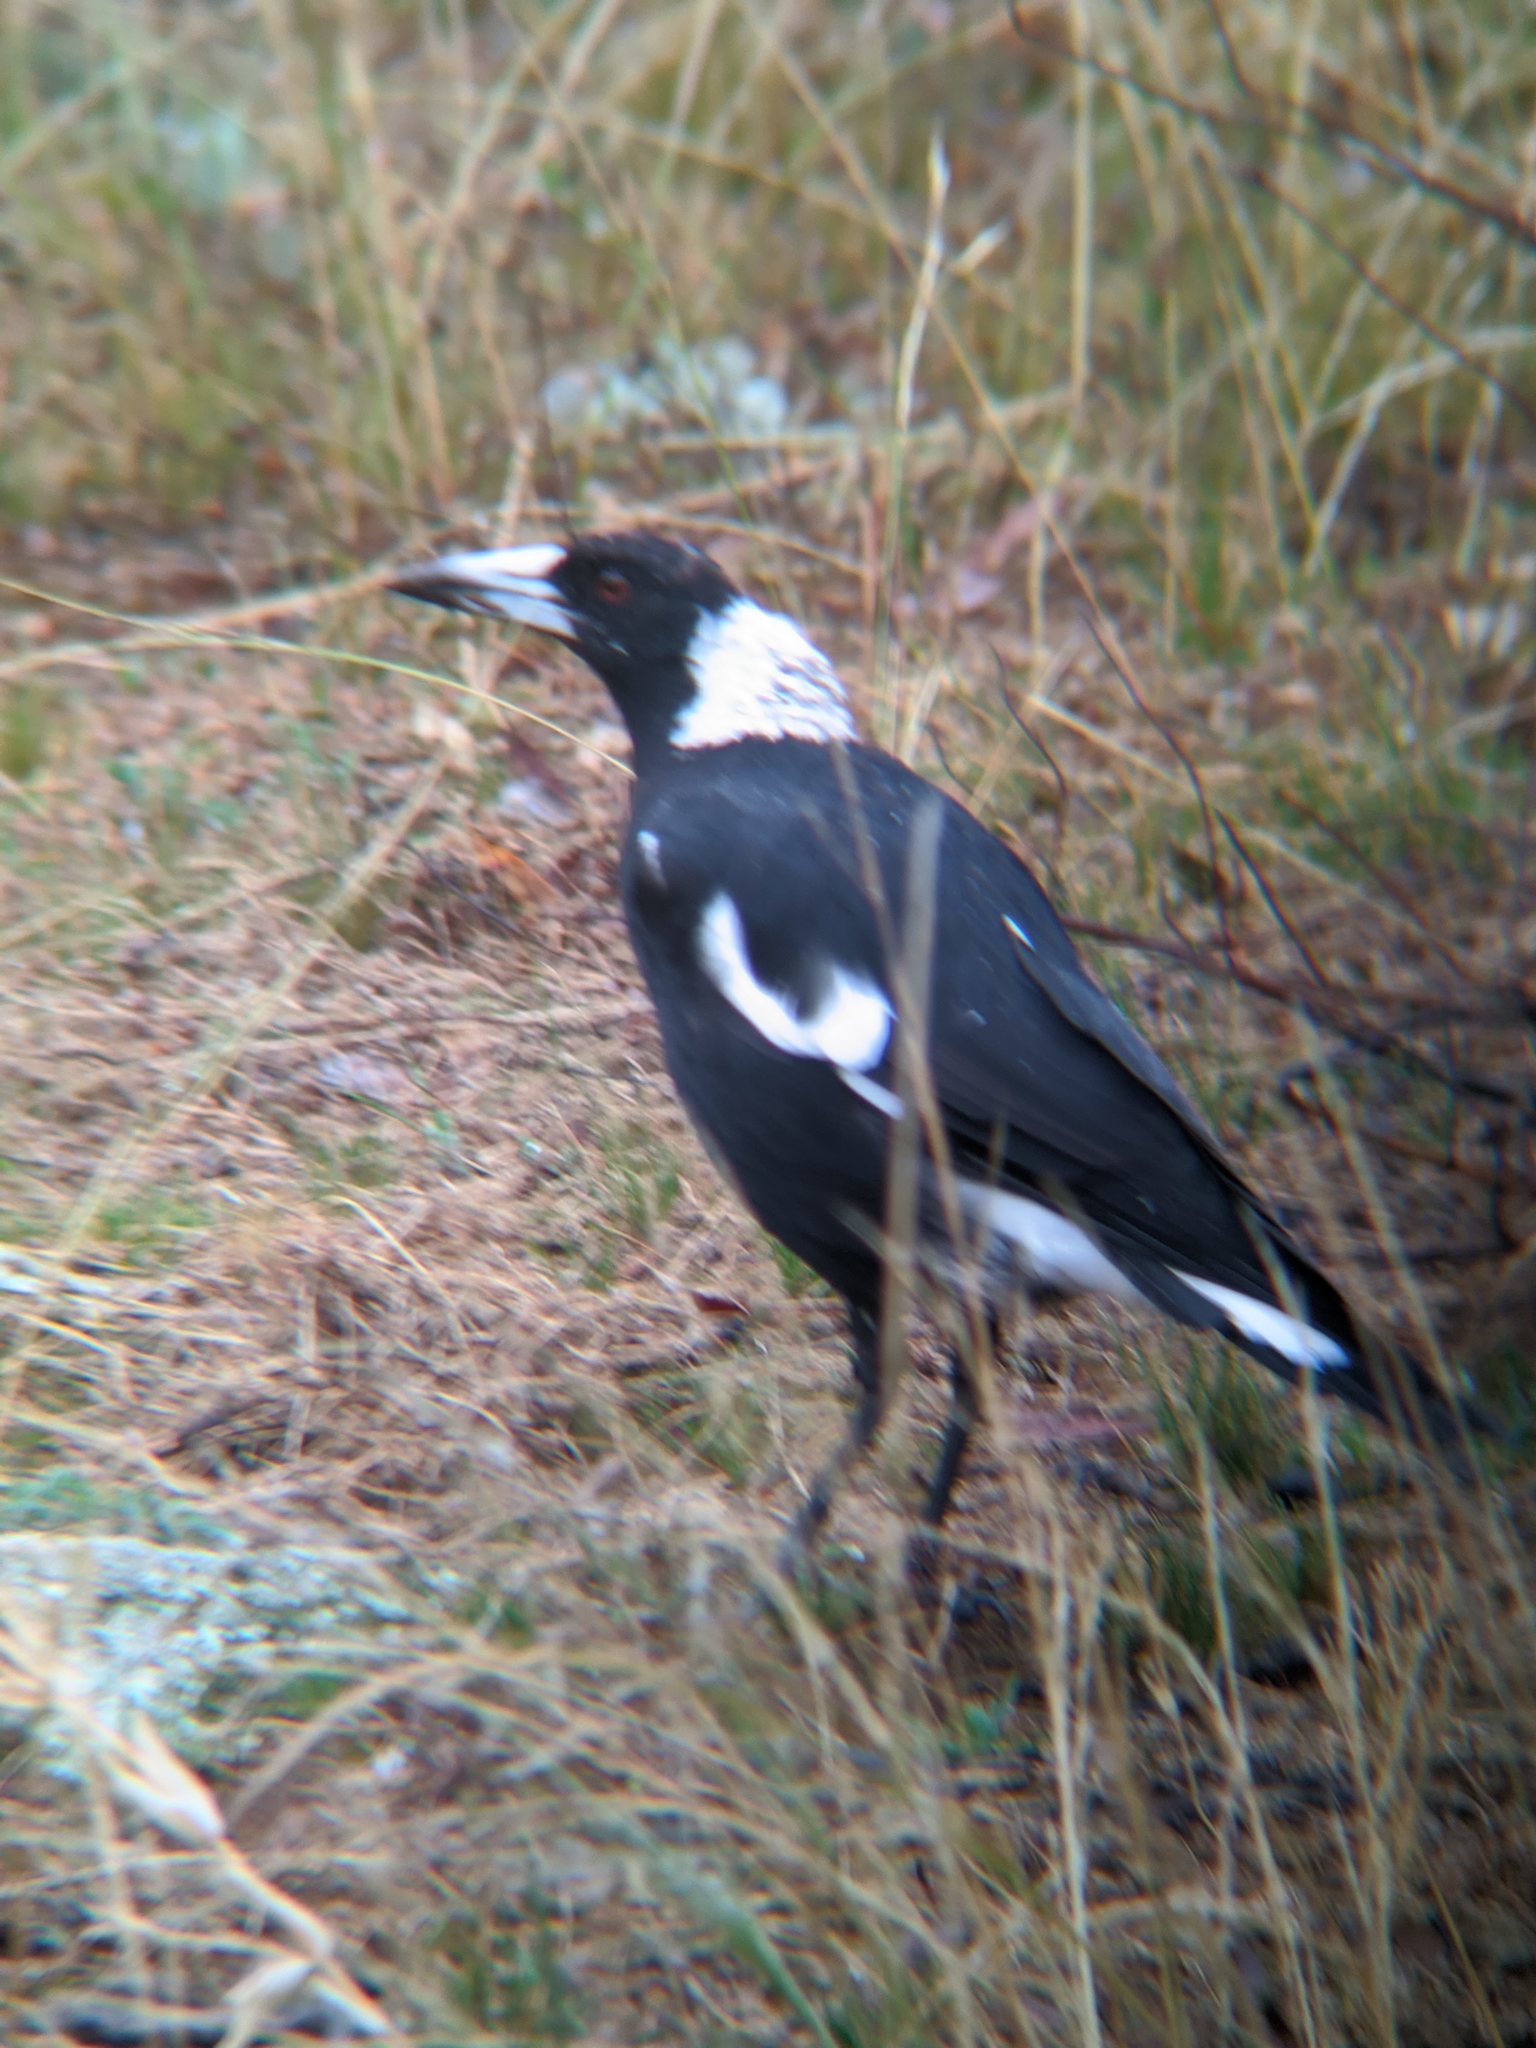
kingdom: Animalia
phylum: Chordata
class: Aves
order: Passeriformes
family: Cracticidae
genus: Gymnorhina
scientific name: Gymnorhina tibicen
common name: Australian magpie
